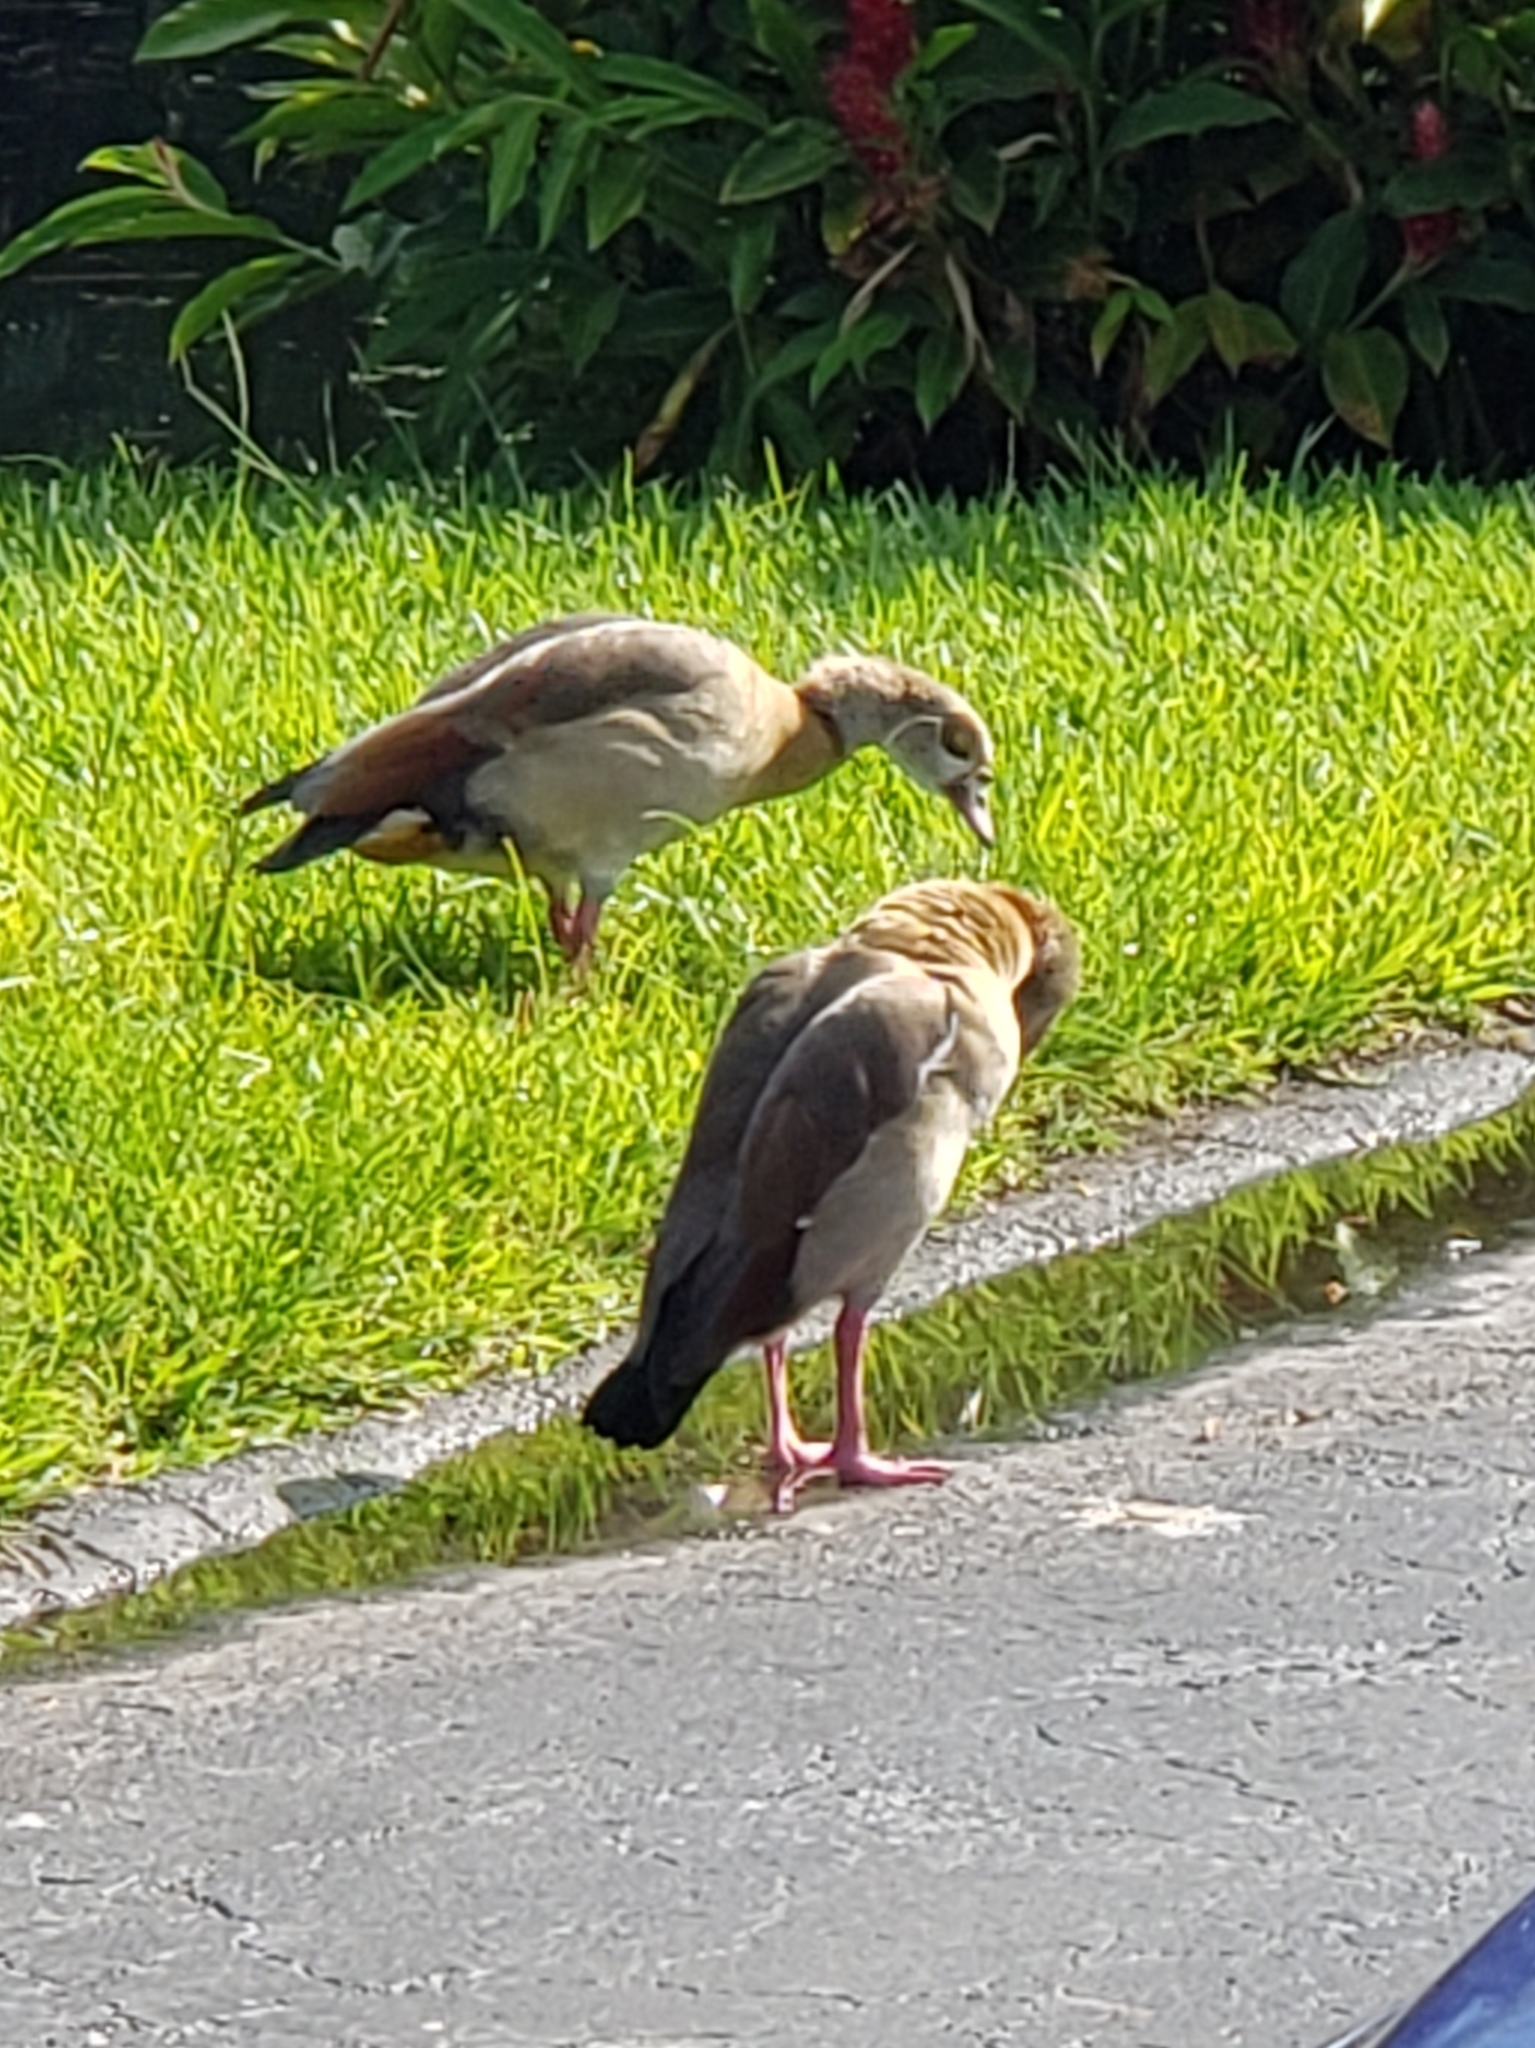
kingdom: Animalia
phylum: Chordata
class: Aves
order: Anseriformes
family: Anatidae
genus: Alopochen
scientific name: Alopochen aegyptiaca
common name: Egyptian goose
